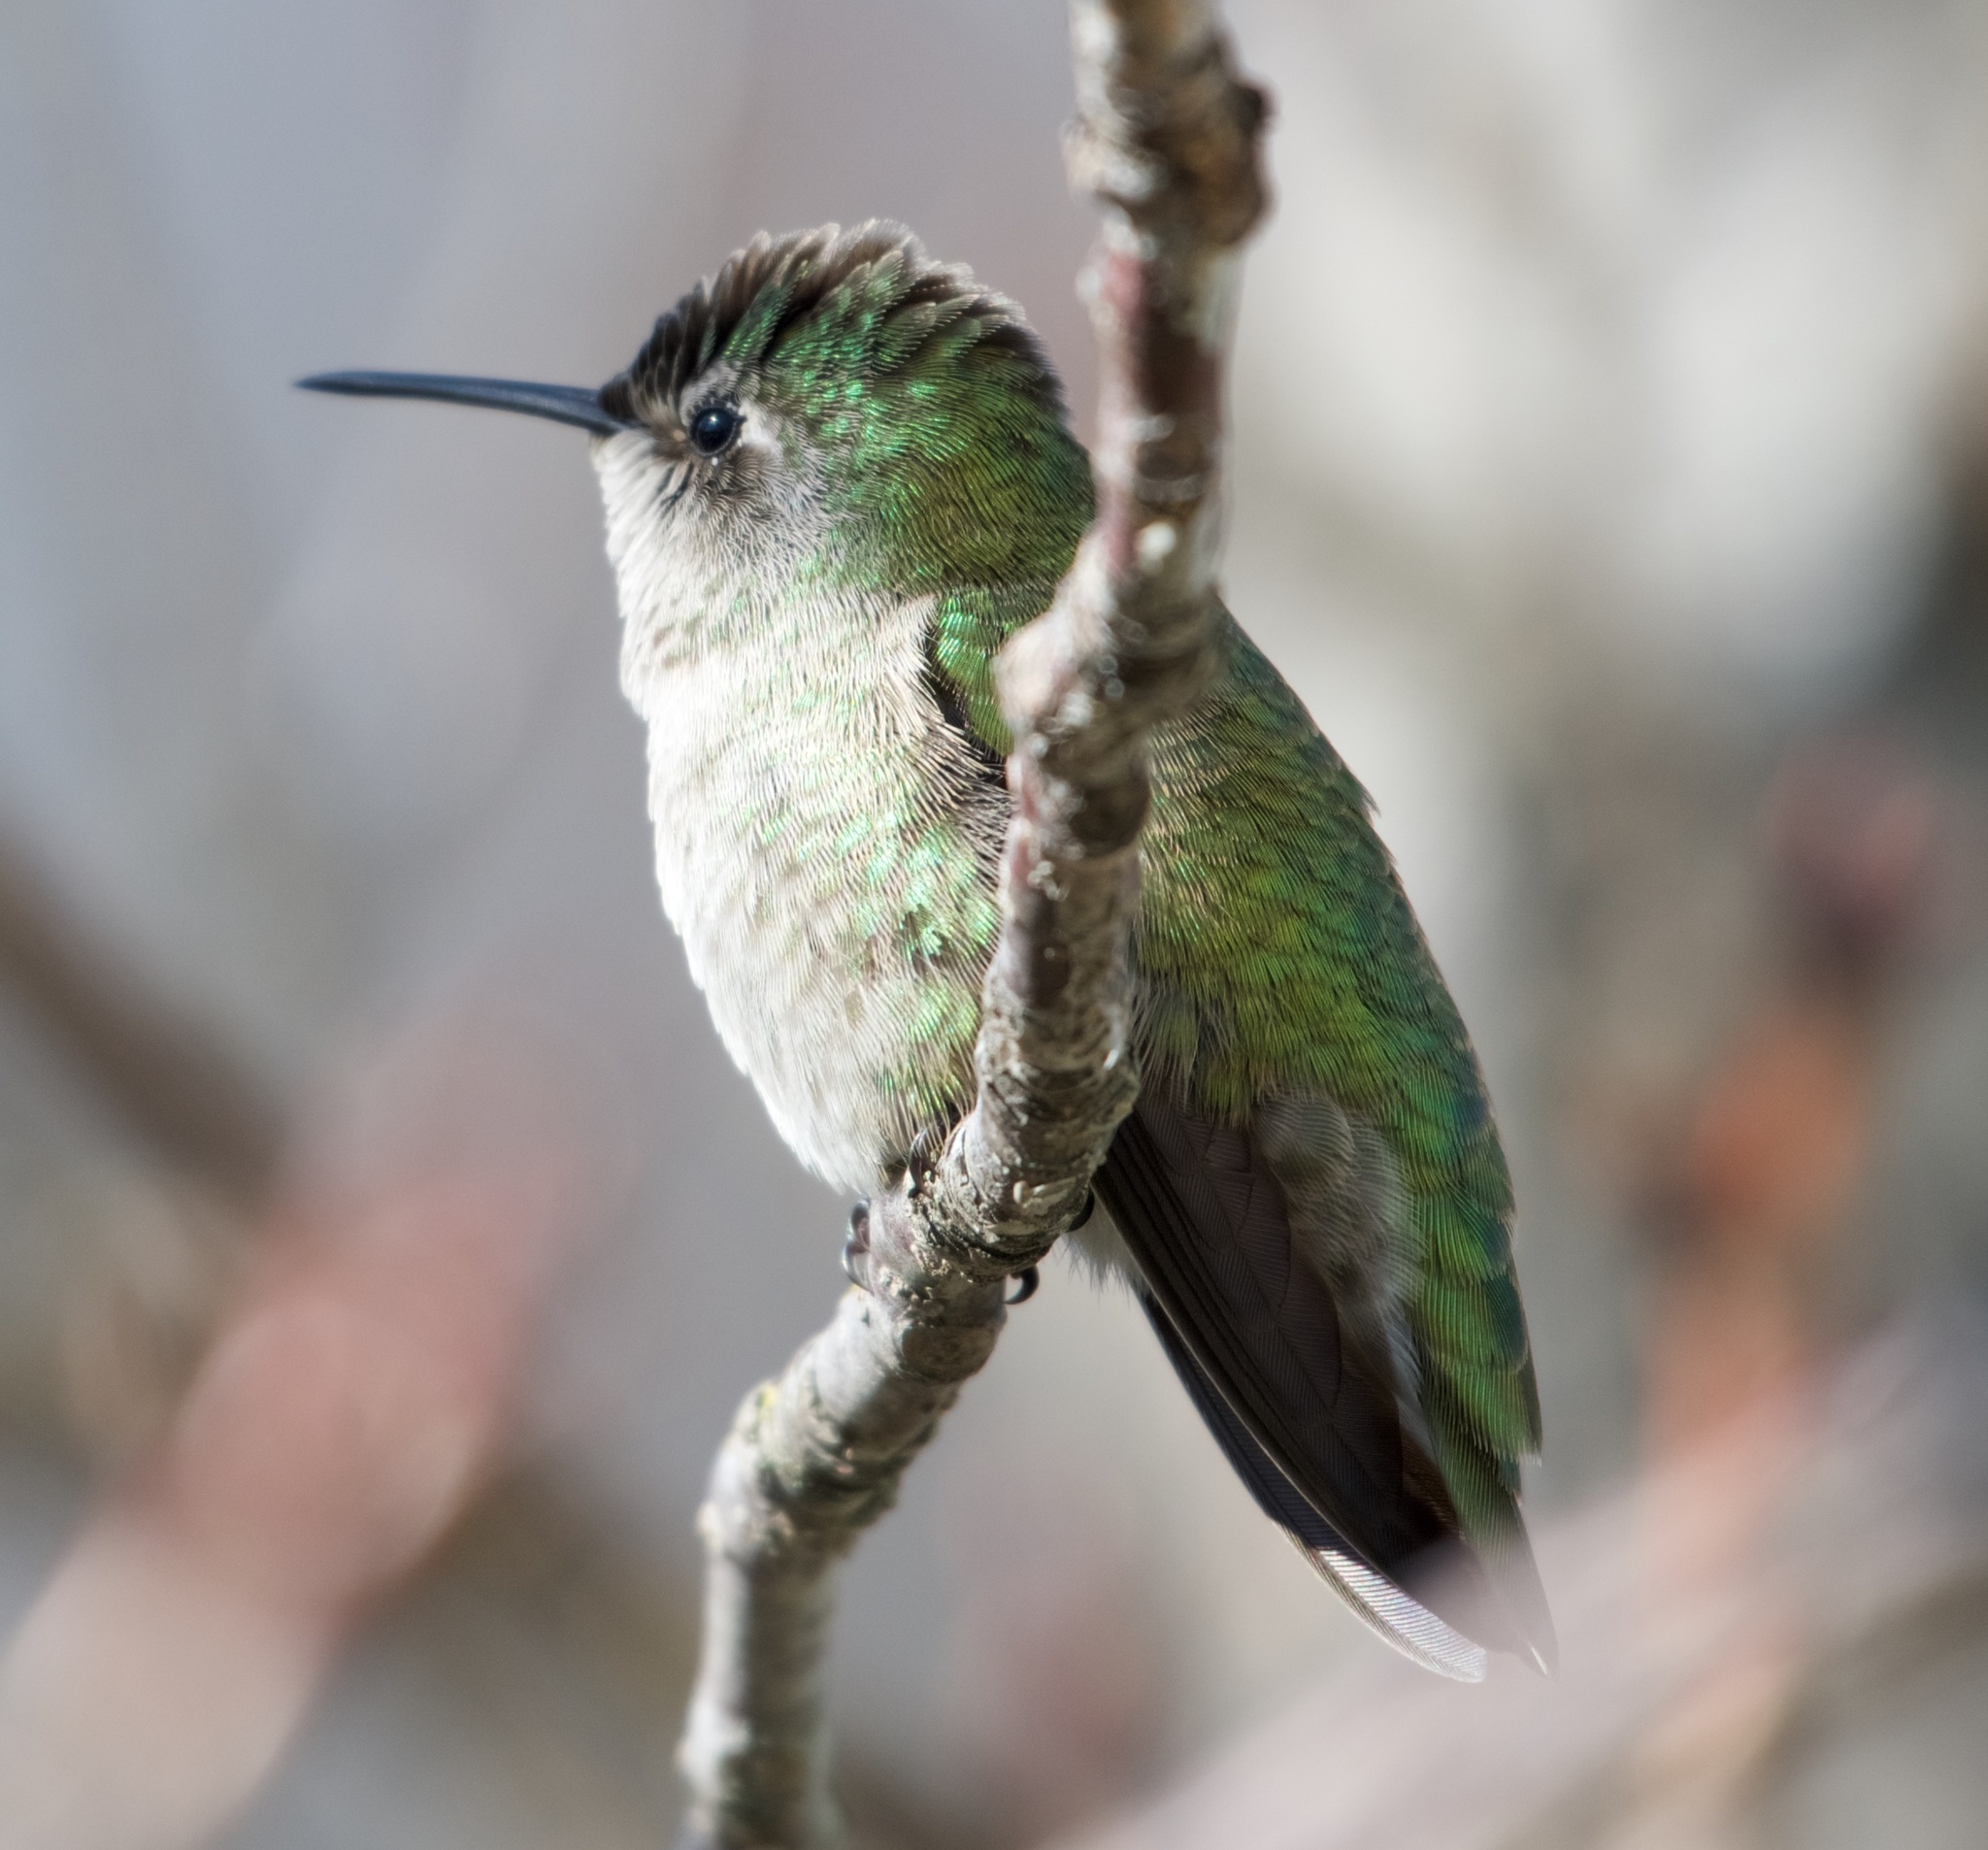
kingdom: Animalia
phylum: Chordata
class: Aves
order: Apodiformes
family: Trochilidae
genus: Calypte
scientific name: Calypte anna
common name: Anna's hummingbird
